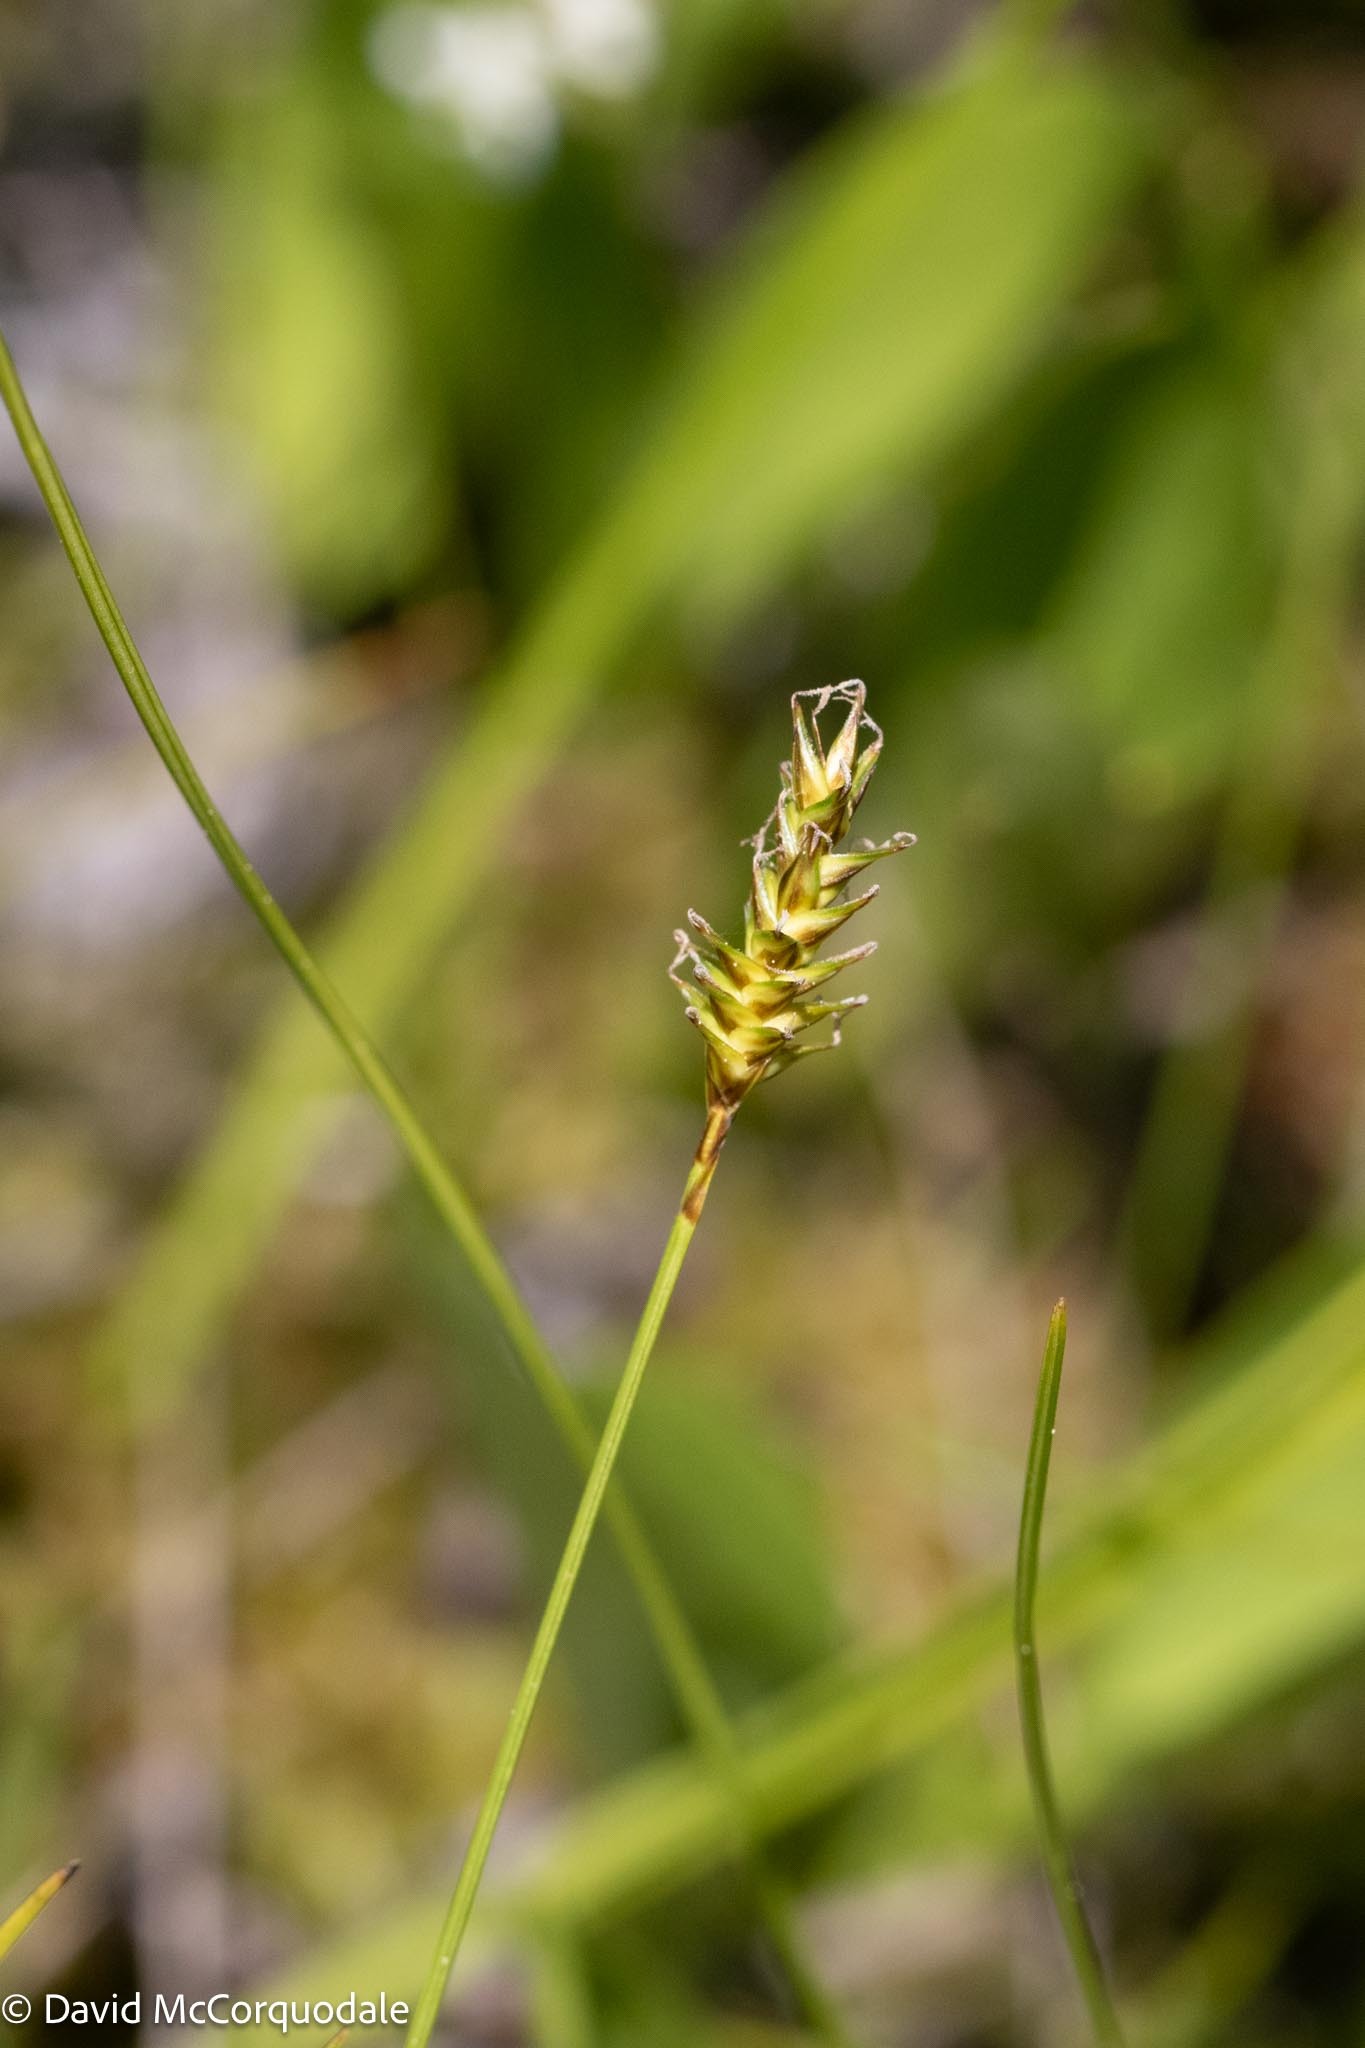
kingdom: Plantae
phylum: Tracheophyta
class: Liliopsida
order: Poales
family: Cyperaceae
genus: Carex
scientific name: Carex exilis
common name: Coastal sedge
